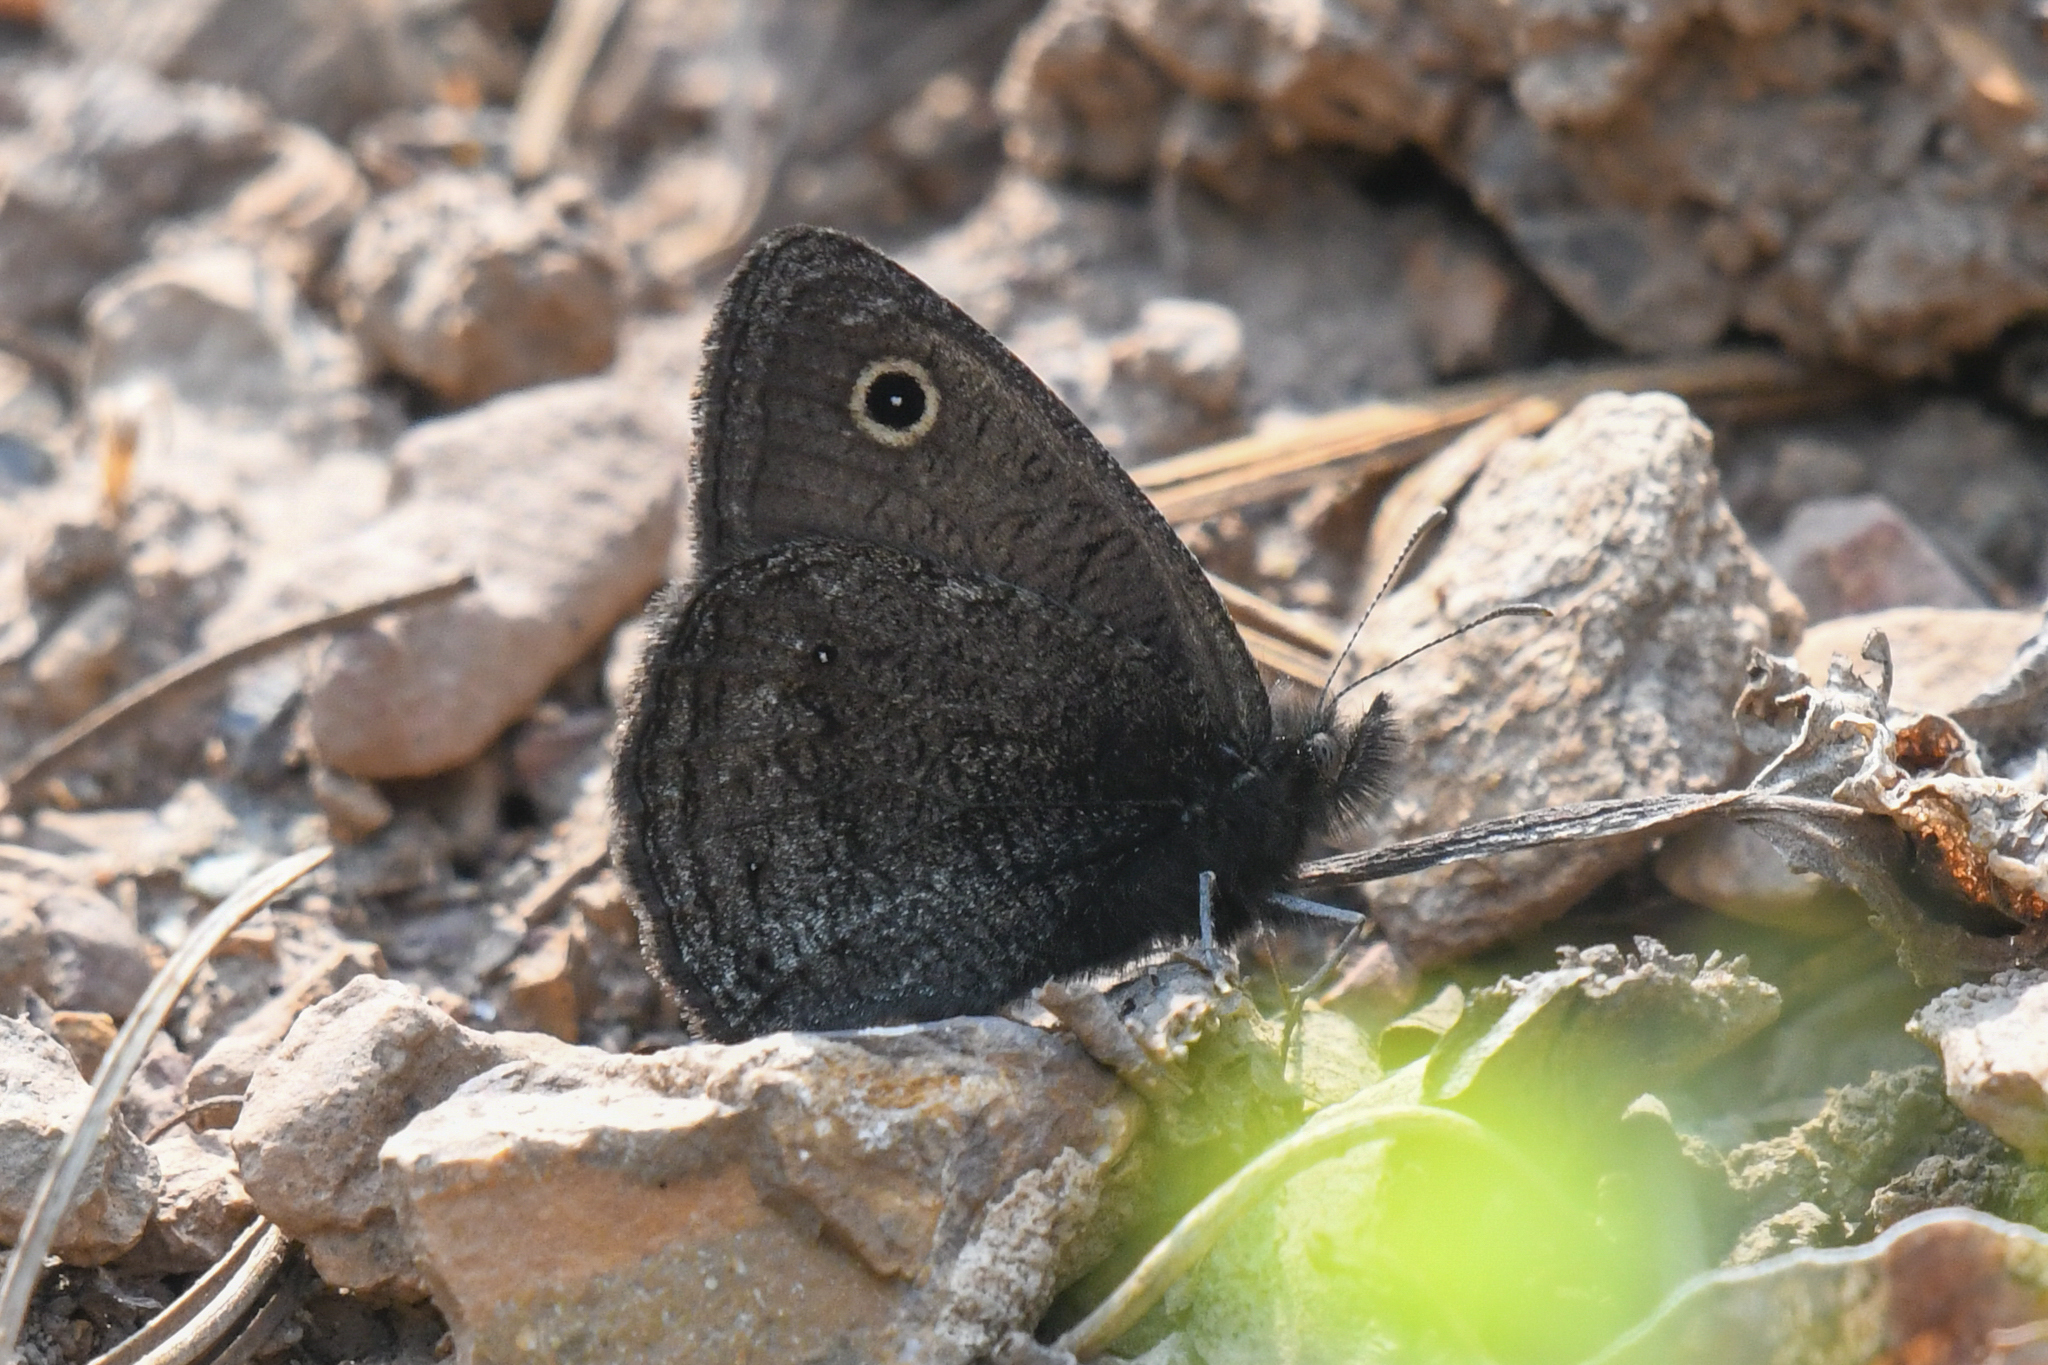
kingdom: Animalia
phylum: Arthropoda
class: Insecta
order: Lepidoptera
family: Nymphalidae
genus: Cercyonis
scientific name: Cercyonis oetus
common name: Small wood-nymph
